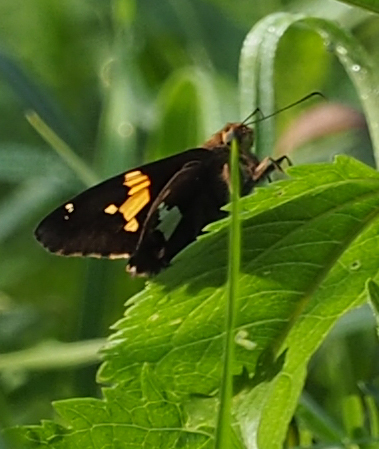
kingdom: Animalia
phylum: Arthropoda
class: Insecta
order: Lepidoptera
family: Hesperiidae
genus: Epargyreus
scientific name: Epargyreus clarus
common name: Silver-spotted skipper
